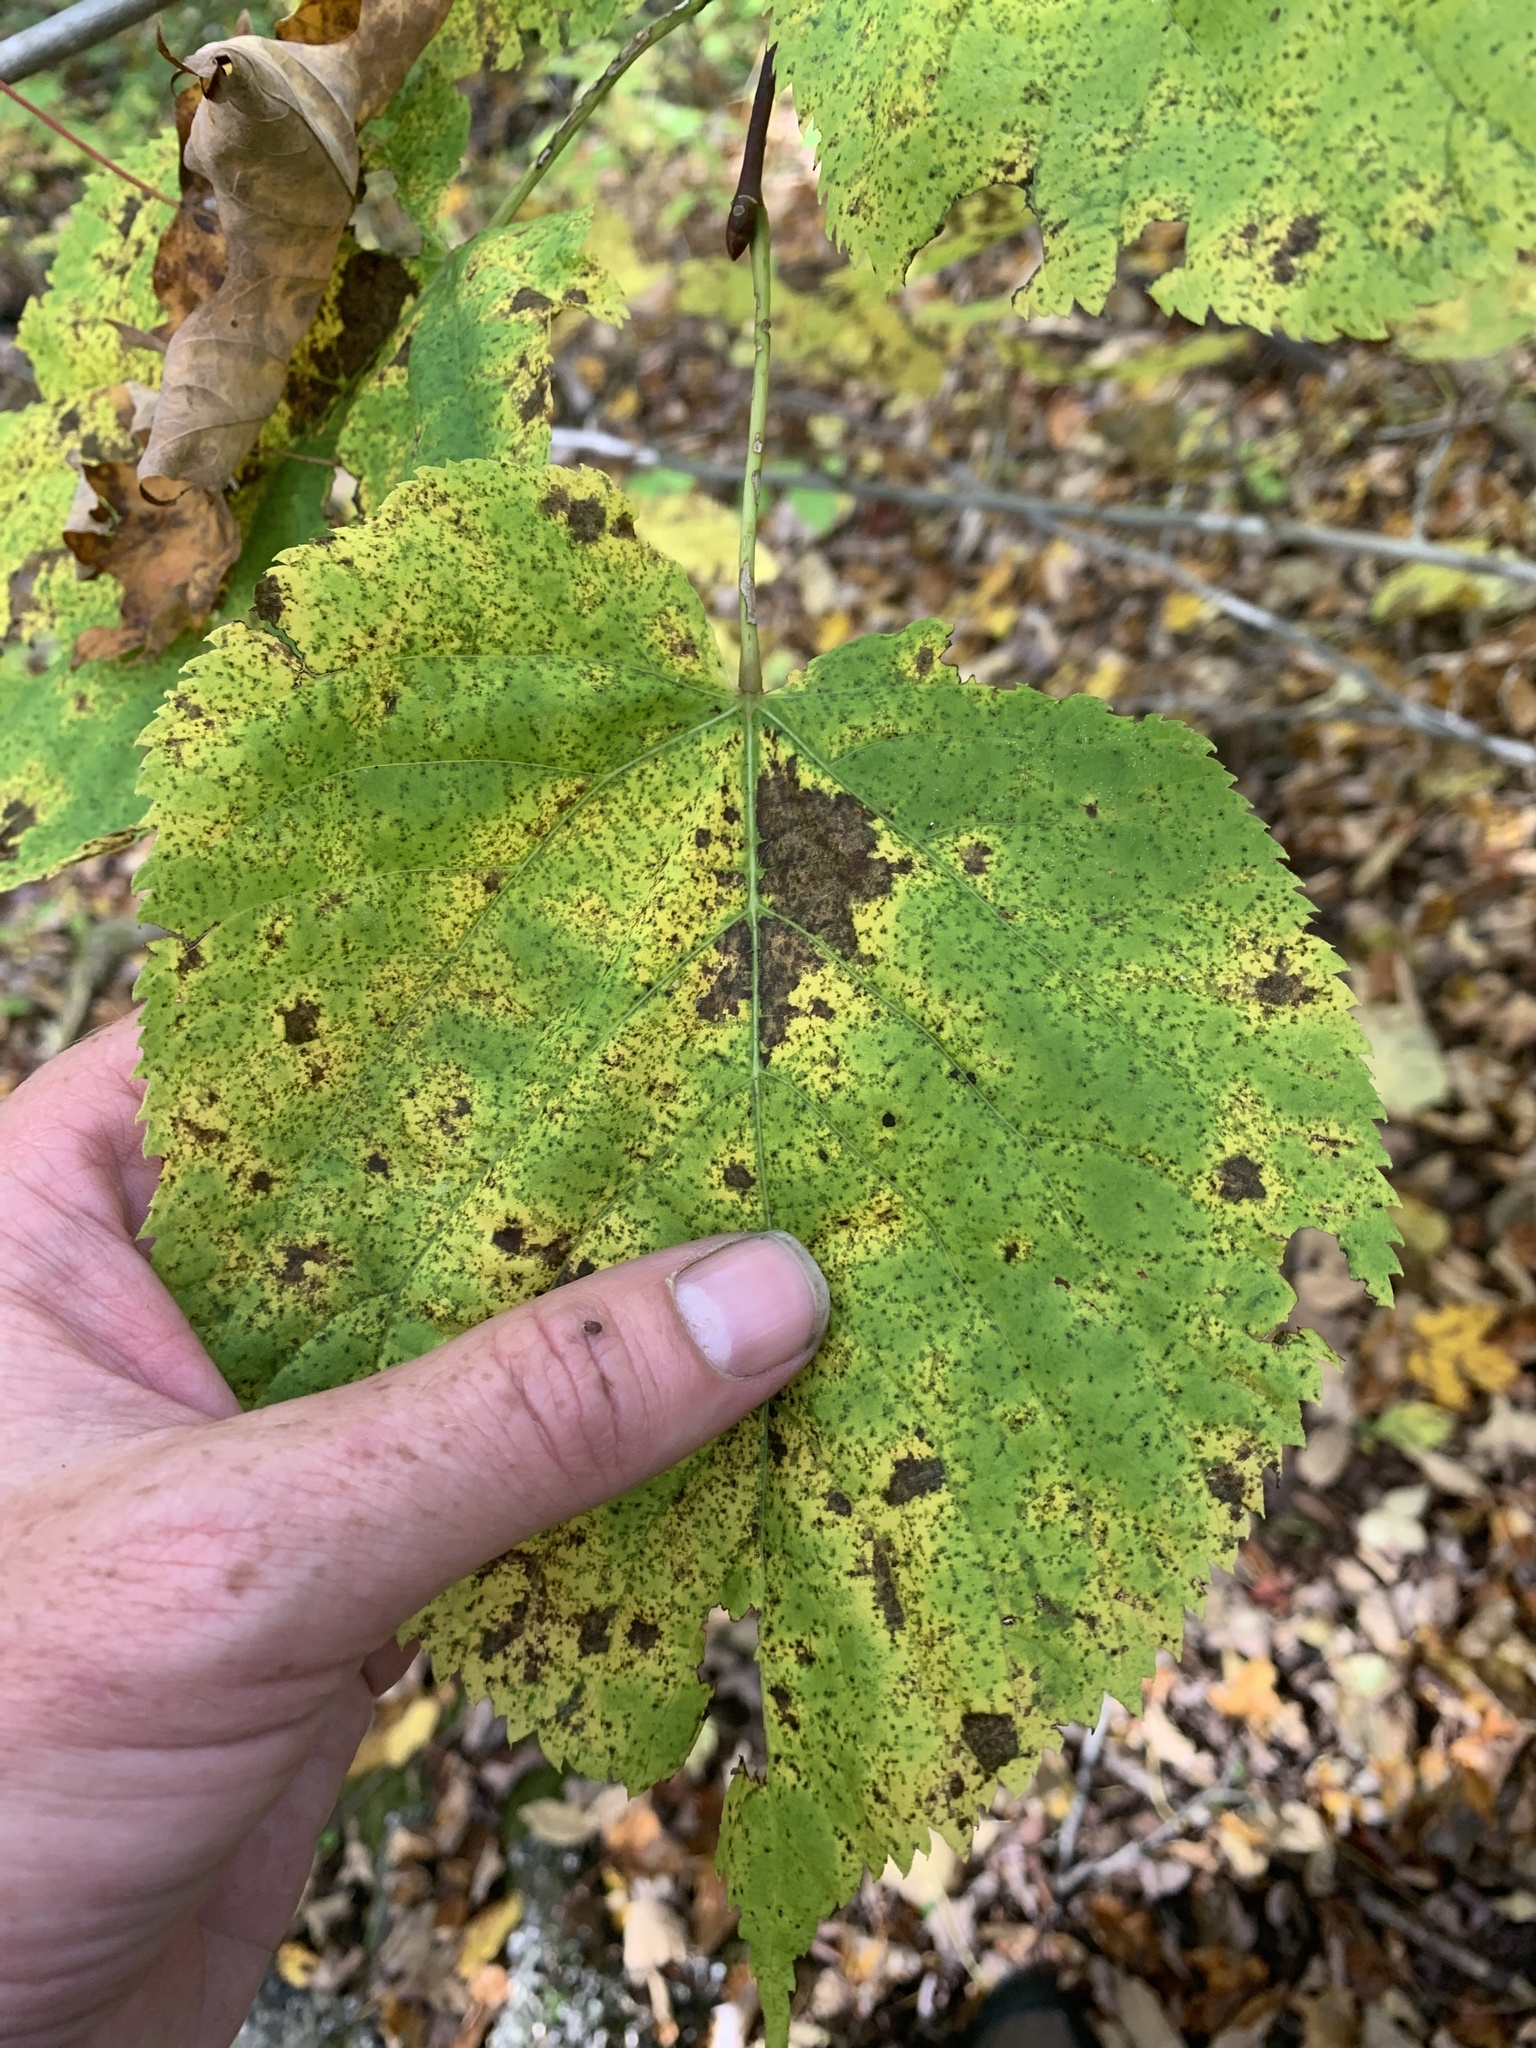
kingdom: Plantae
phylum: Tracheophyta
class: Magnoliopsida
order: Malvales
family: Malvaceae
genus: Tilia
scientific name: Tilia americana
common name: Basswood
